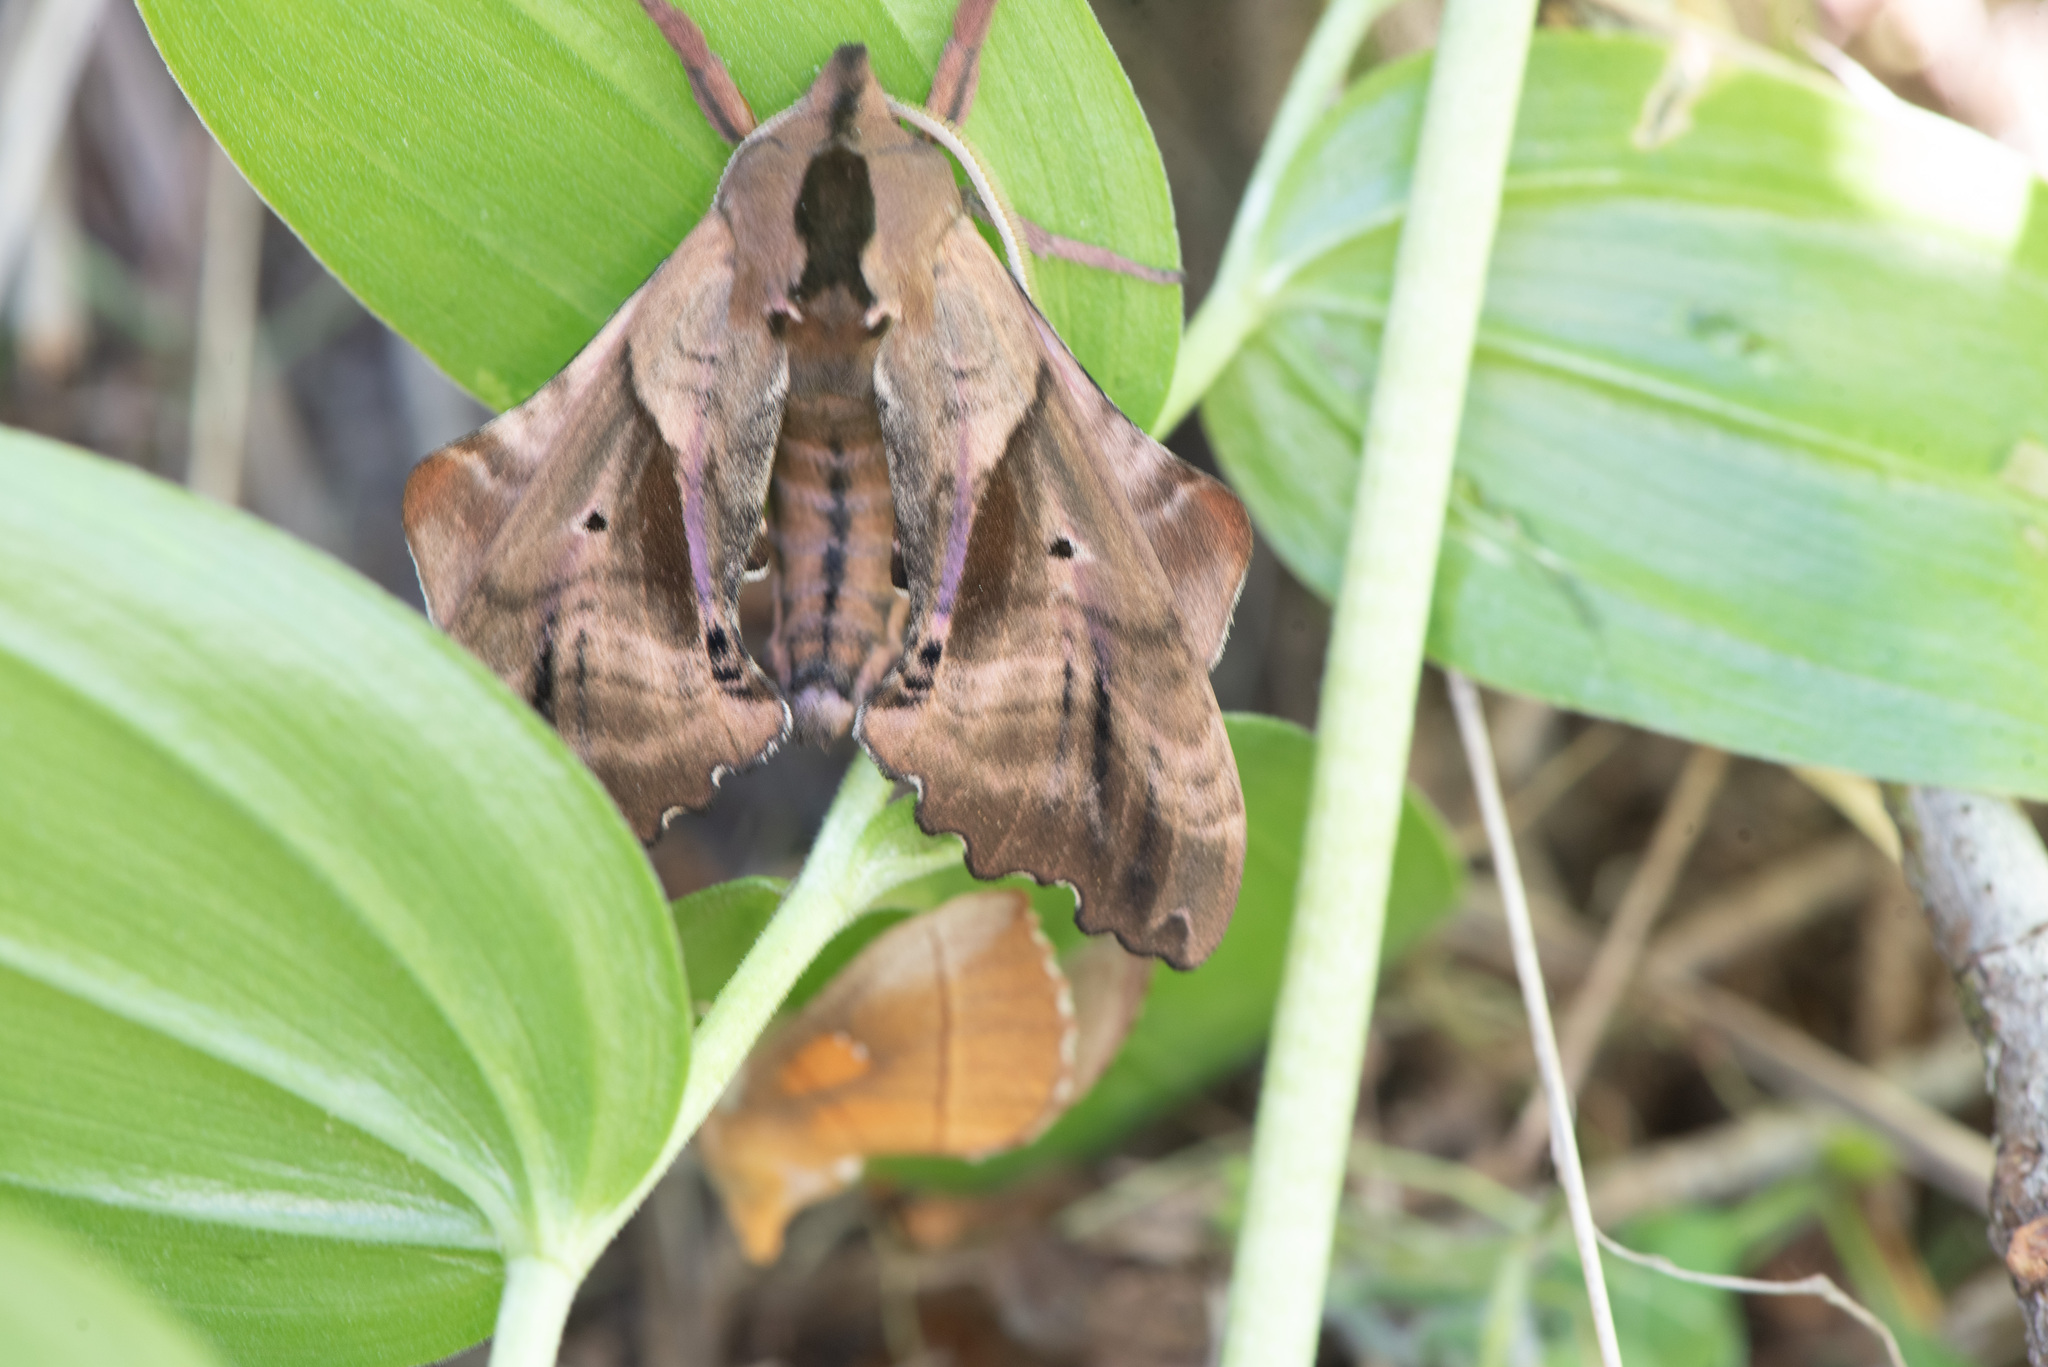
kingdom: Animalia
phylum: Arthropoda
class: Insecta
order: Lepidoptera
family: Sphingidae
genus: Paonias
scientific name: Paonias excaecata
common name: Blind-eyed sphinx
